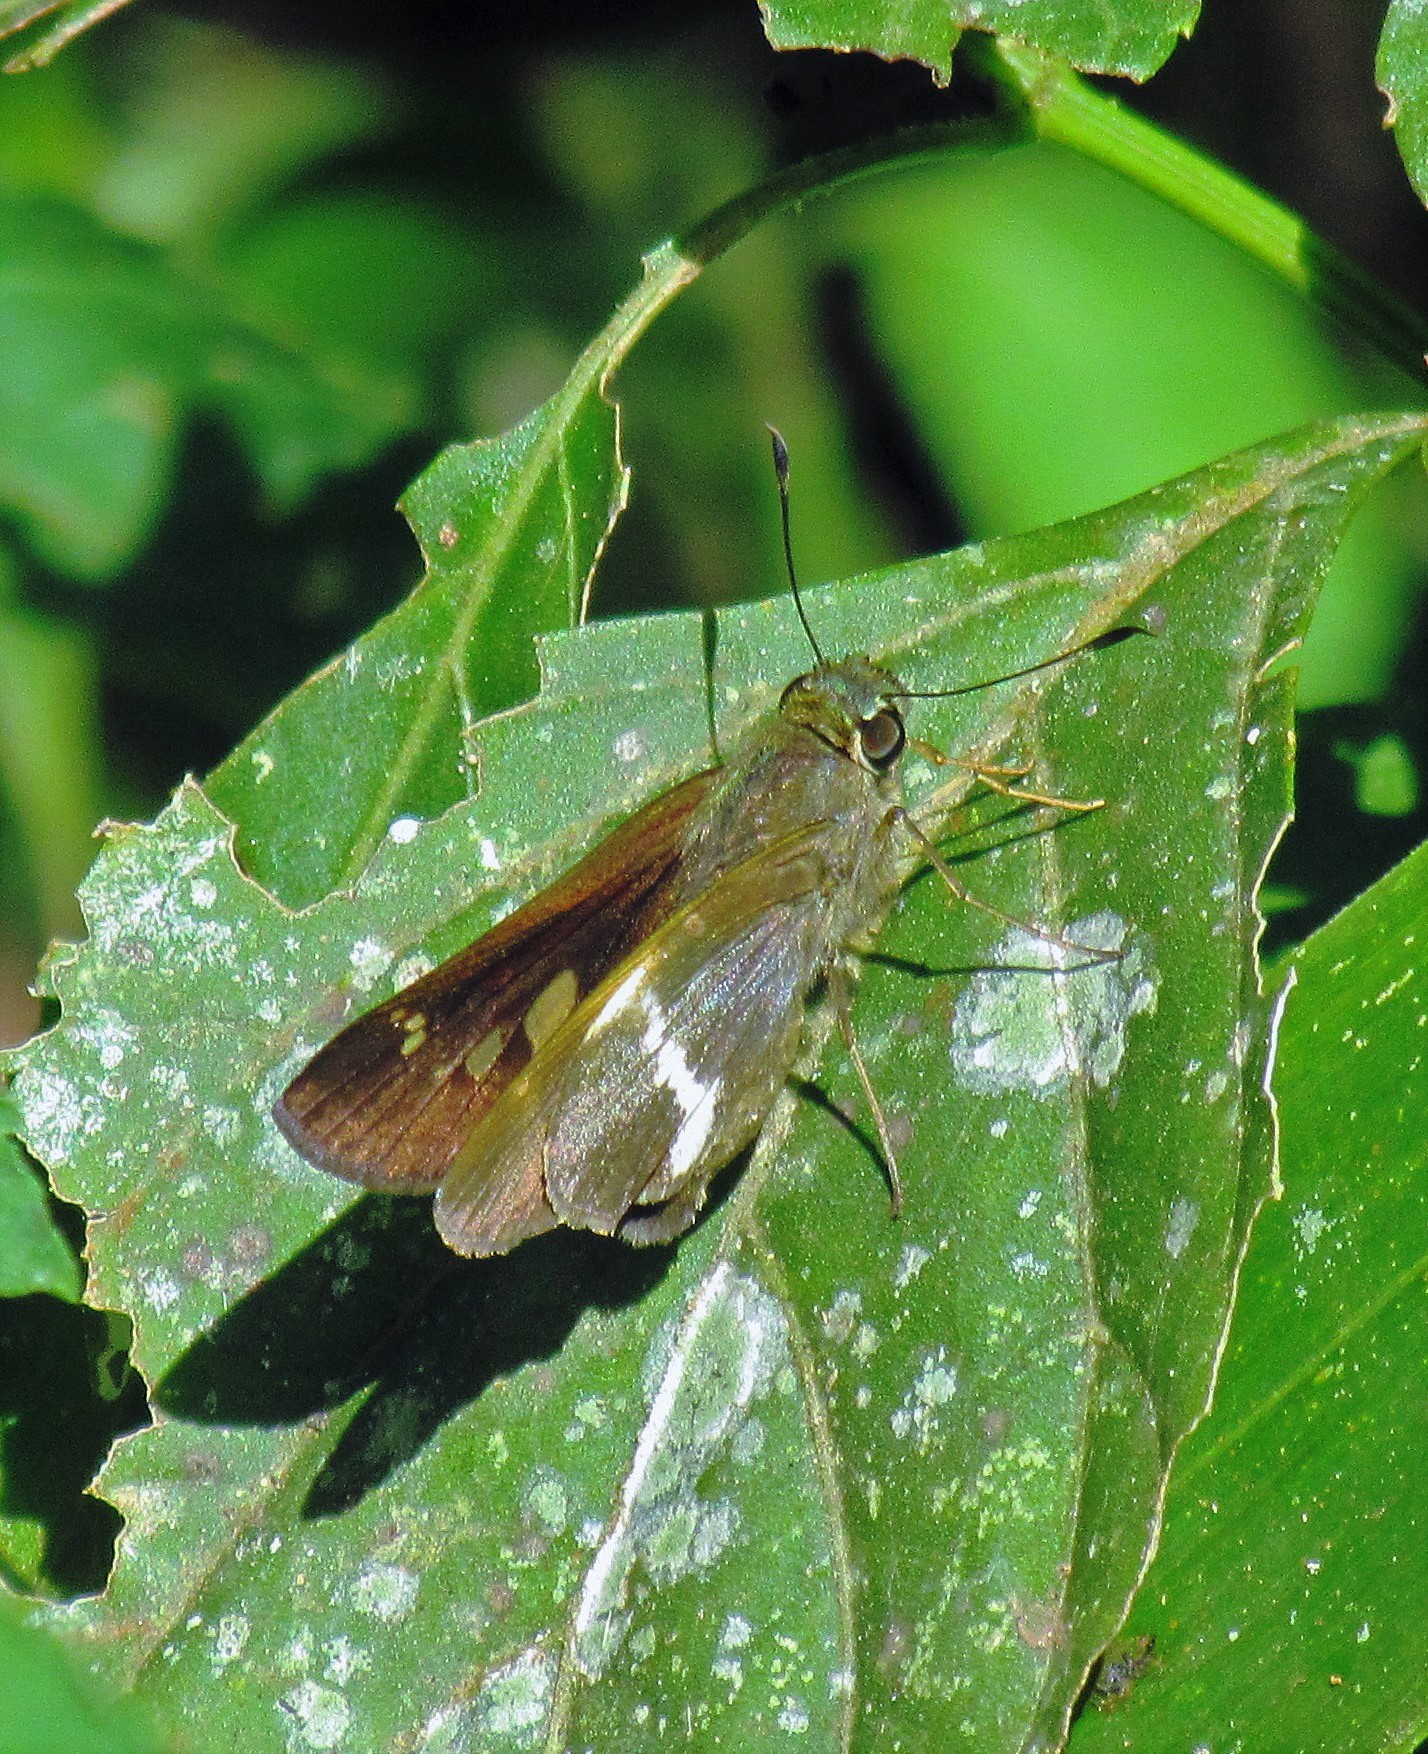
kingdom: Animalia
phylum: Arthropoda
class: Insecta
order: Lepidoptera
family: Hesperiidae
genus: Tirynthia
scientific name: Tirynthia conflua
